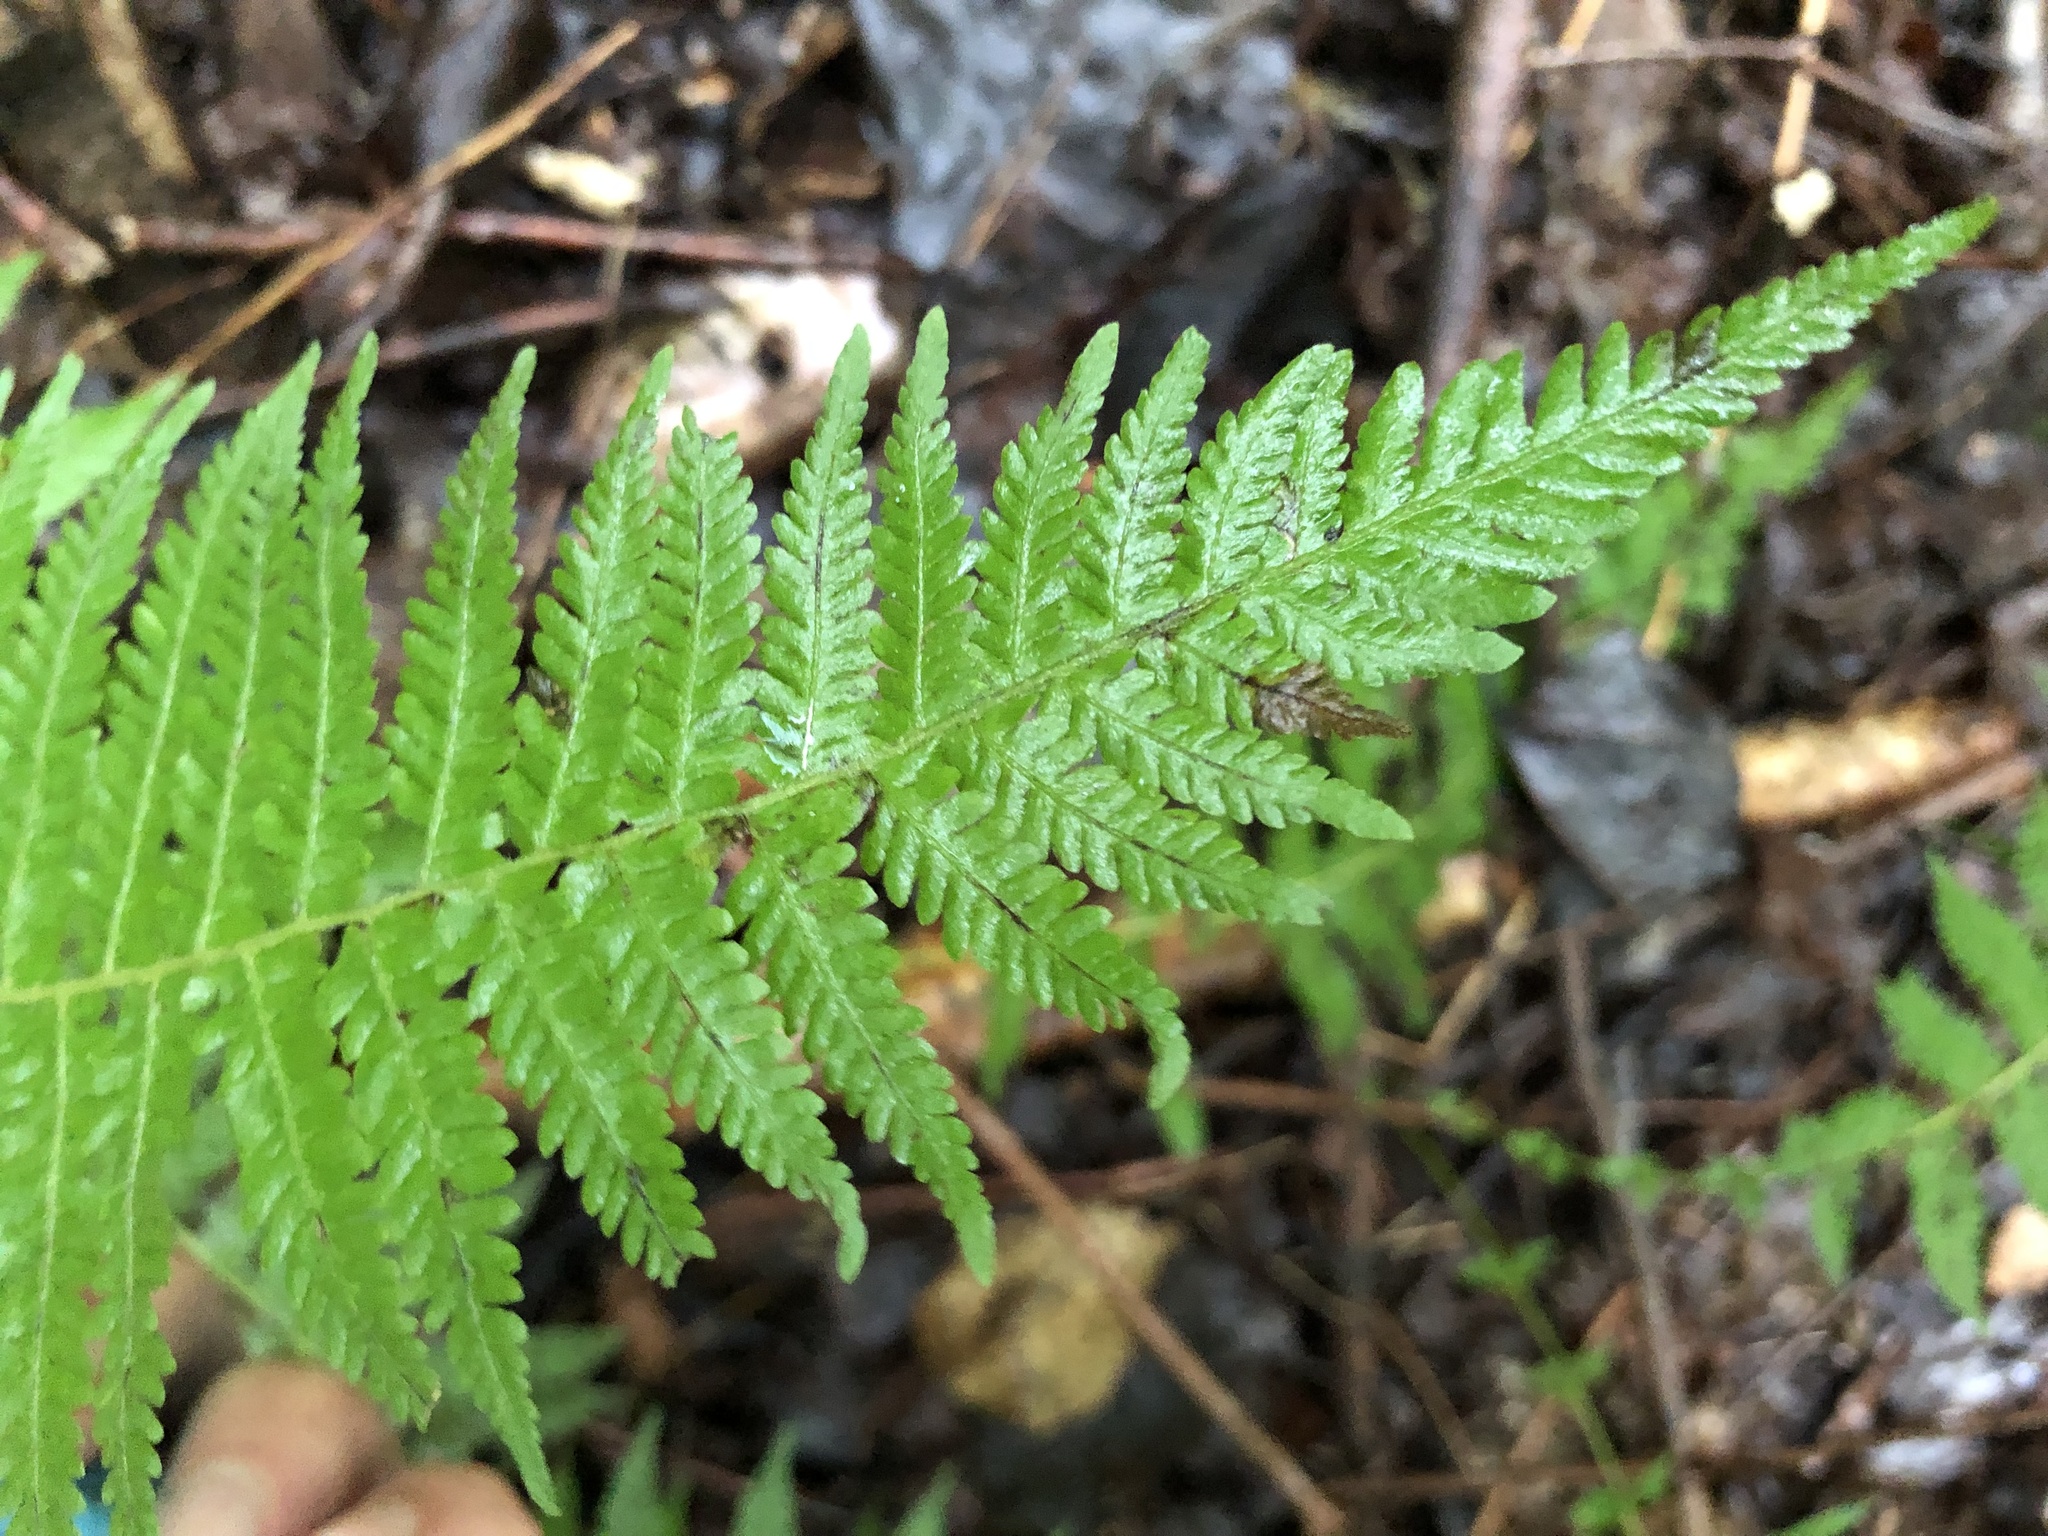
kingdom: Plantae
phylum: Tracheophyta
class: Polypodiopsida
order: Polypodiales
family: Thelypteridaceae
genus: Amauropelta
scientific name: Amauropelta noveboracensis
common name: New york fern
